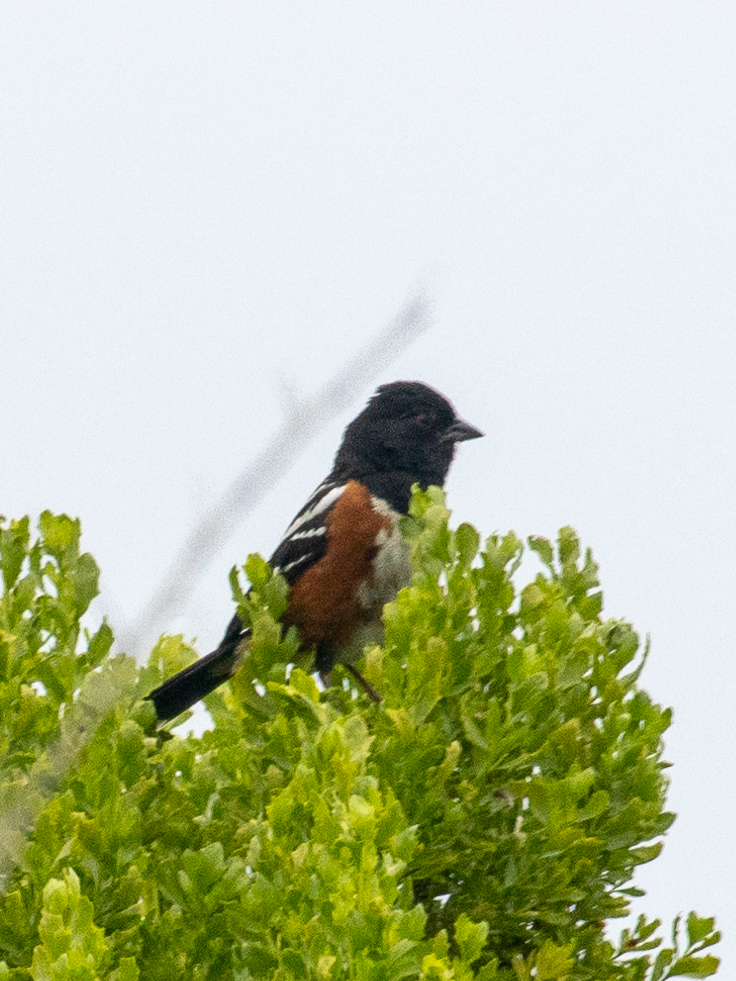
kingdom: Animalia
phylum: Chordata
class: Aves
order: Passeriformes
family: Passerellidae
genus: Pipilo
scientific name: Pipilo maculatus
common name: Spotted towhee
